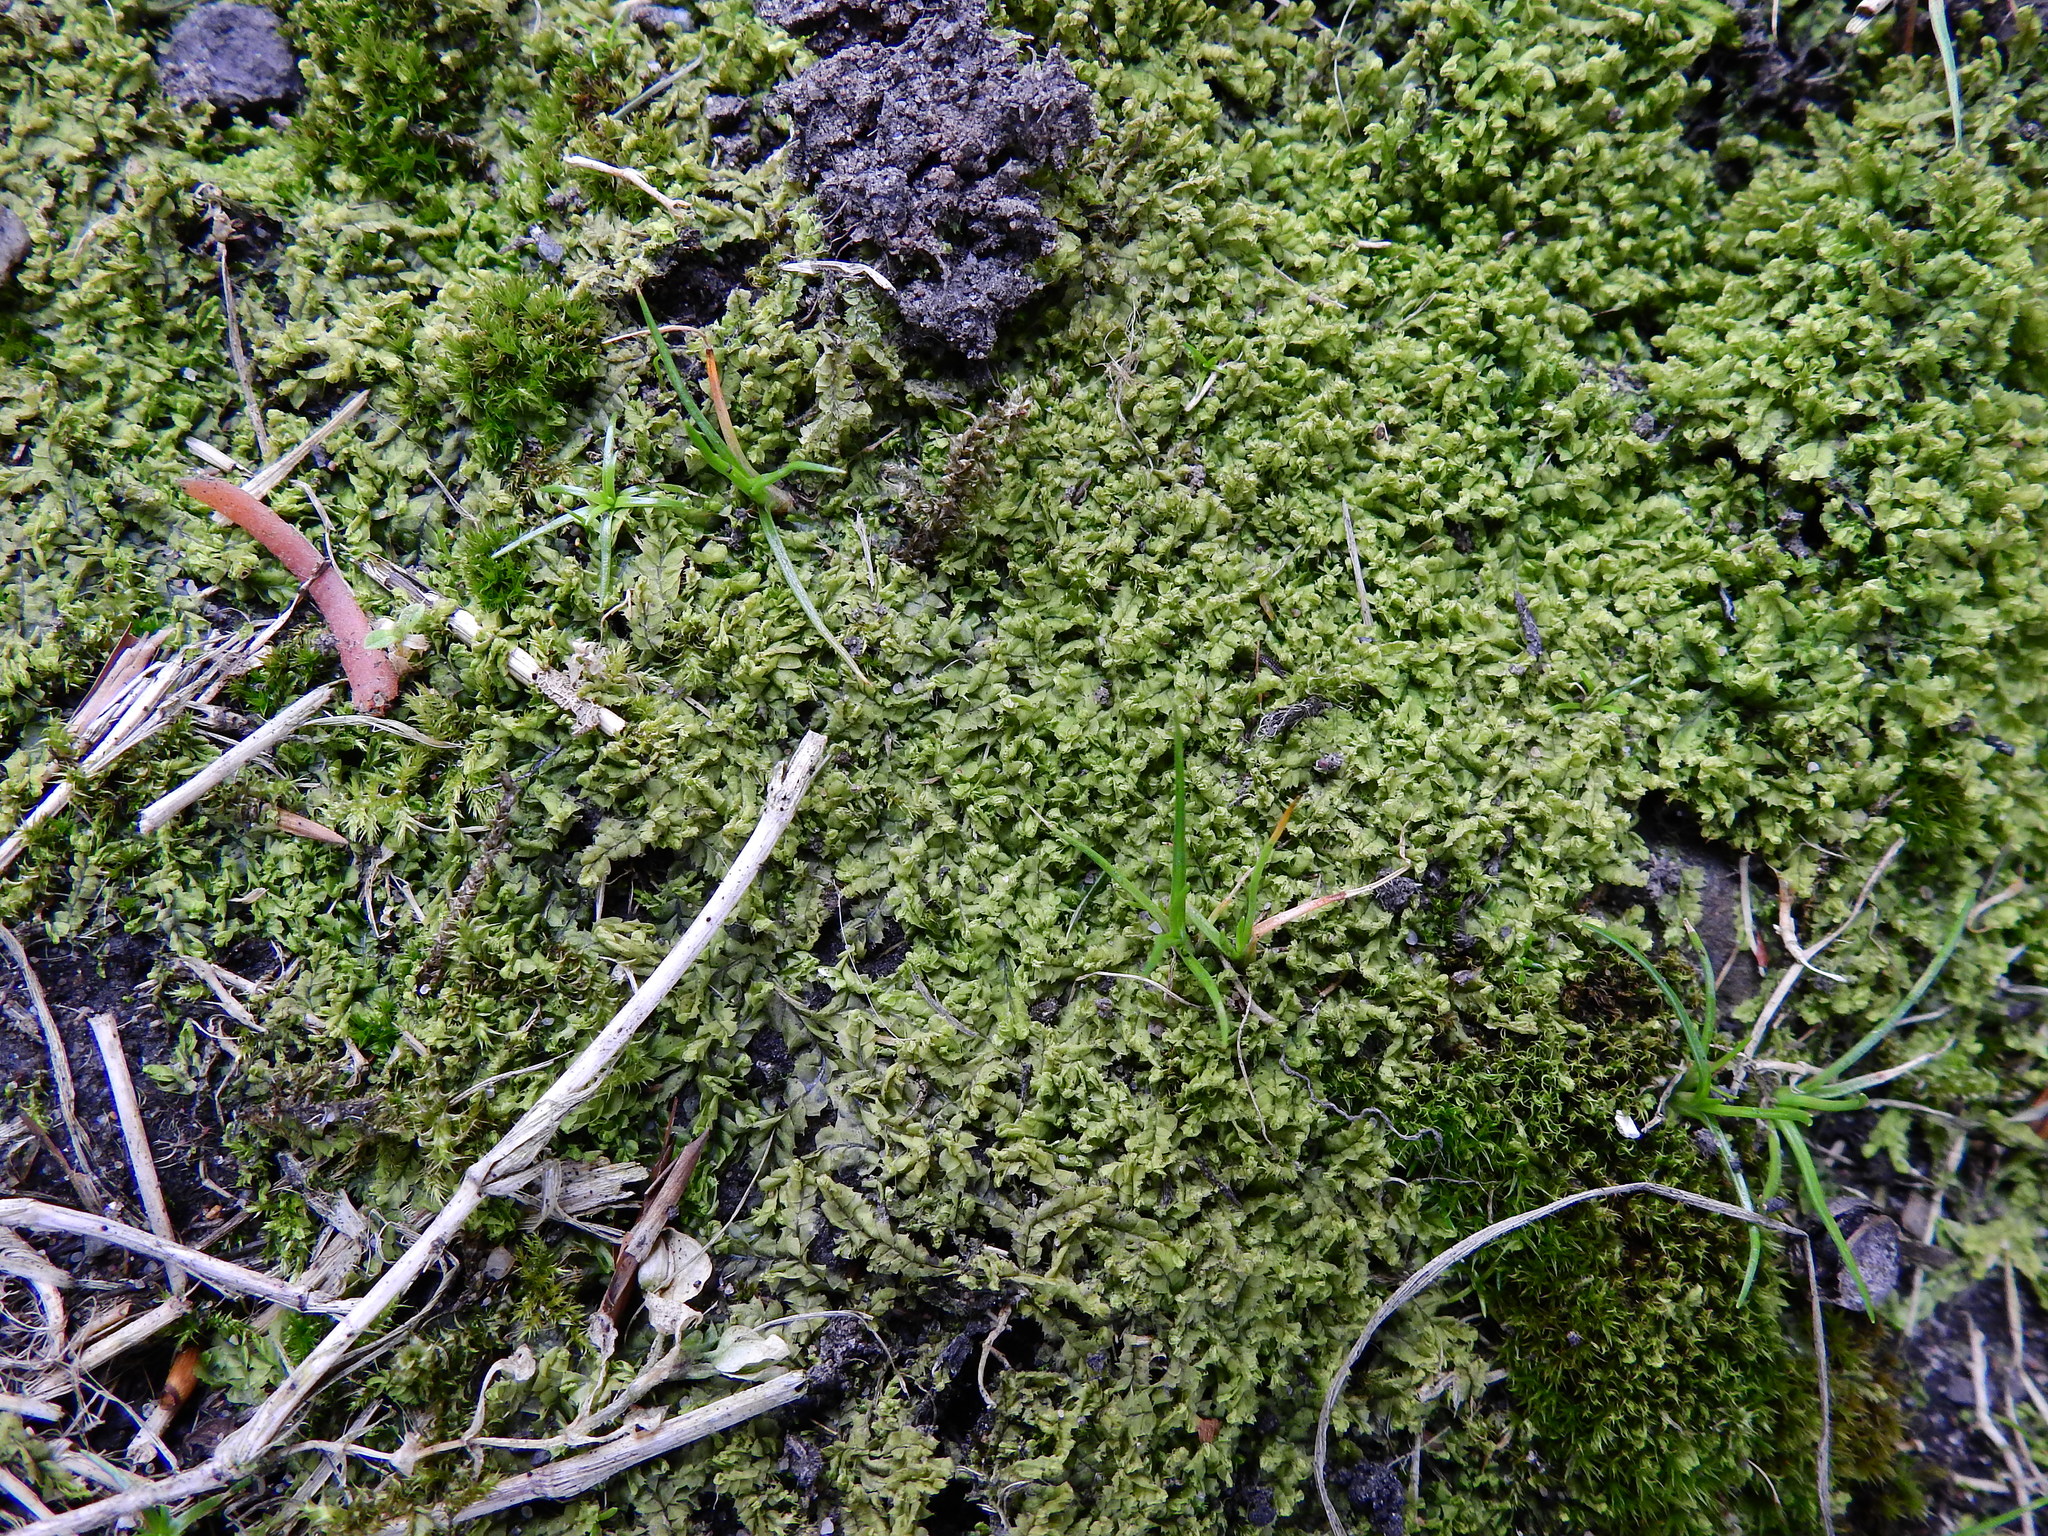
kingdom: Plantae
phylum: Marchantiophyta
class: Jungermanniopsida
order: Jungermanniales
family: Lophocoleaceae
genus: Lophocolea
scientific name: Lophocolea heterophylla
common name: Variable-leaved crestwort
